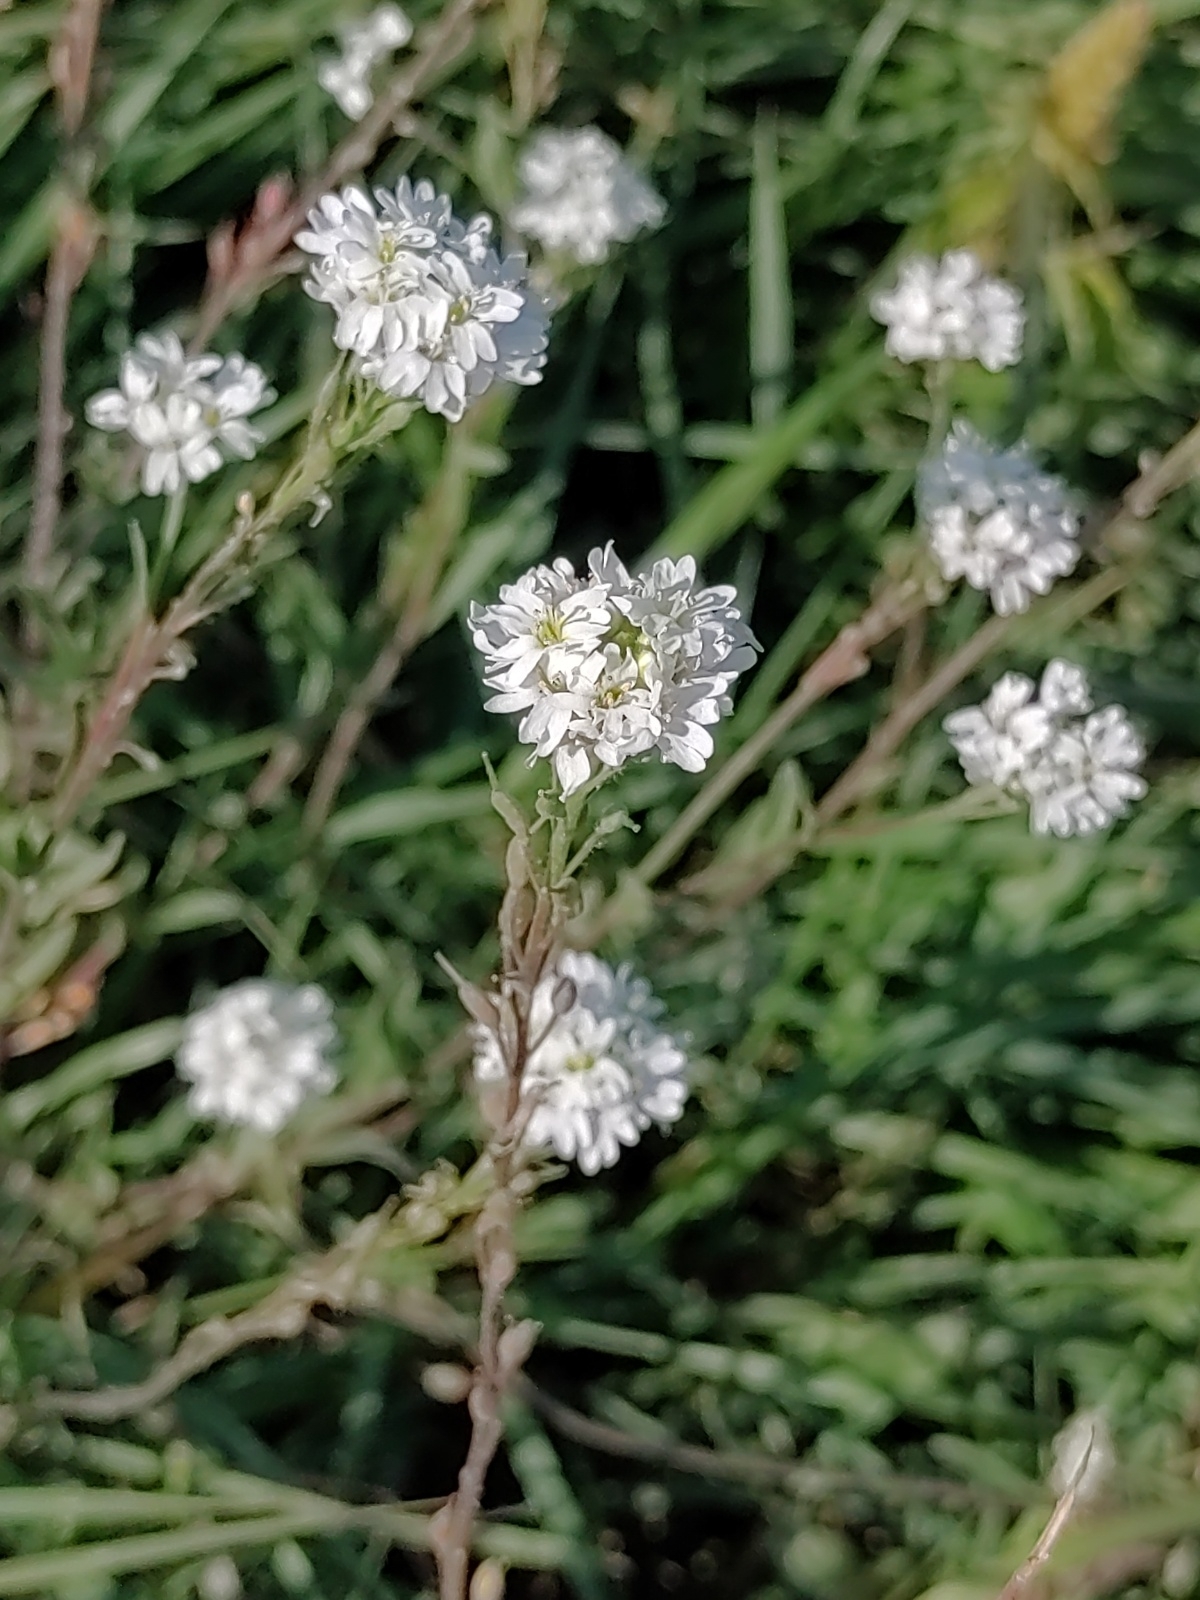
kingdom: Plantae
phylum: Tracheophyta
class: Magnoliopsida
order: Brassicales
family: Brassicaceae
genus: Berteroa
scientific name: Berteroa incana
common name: Hoary alison
